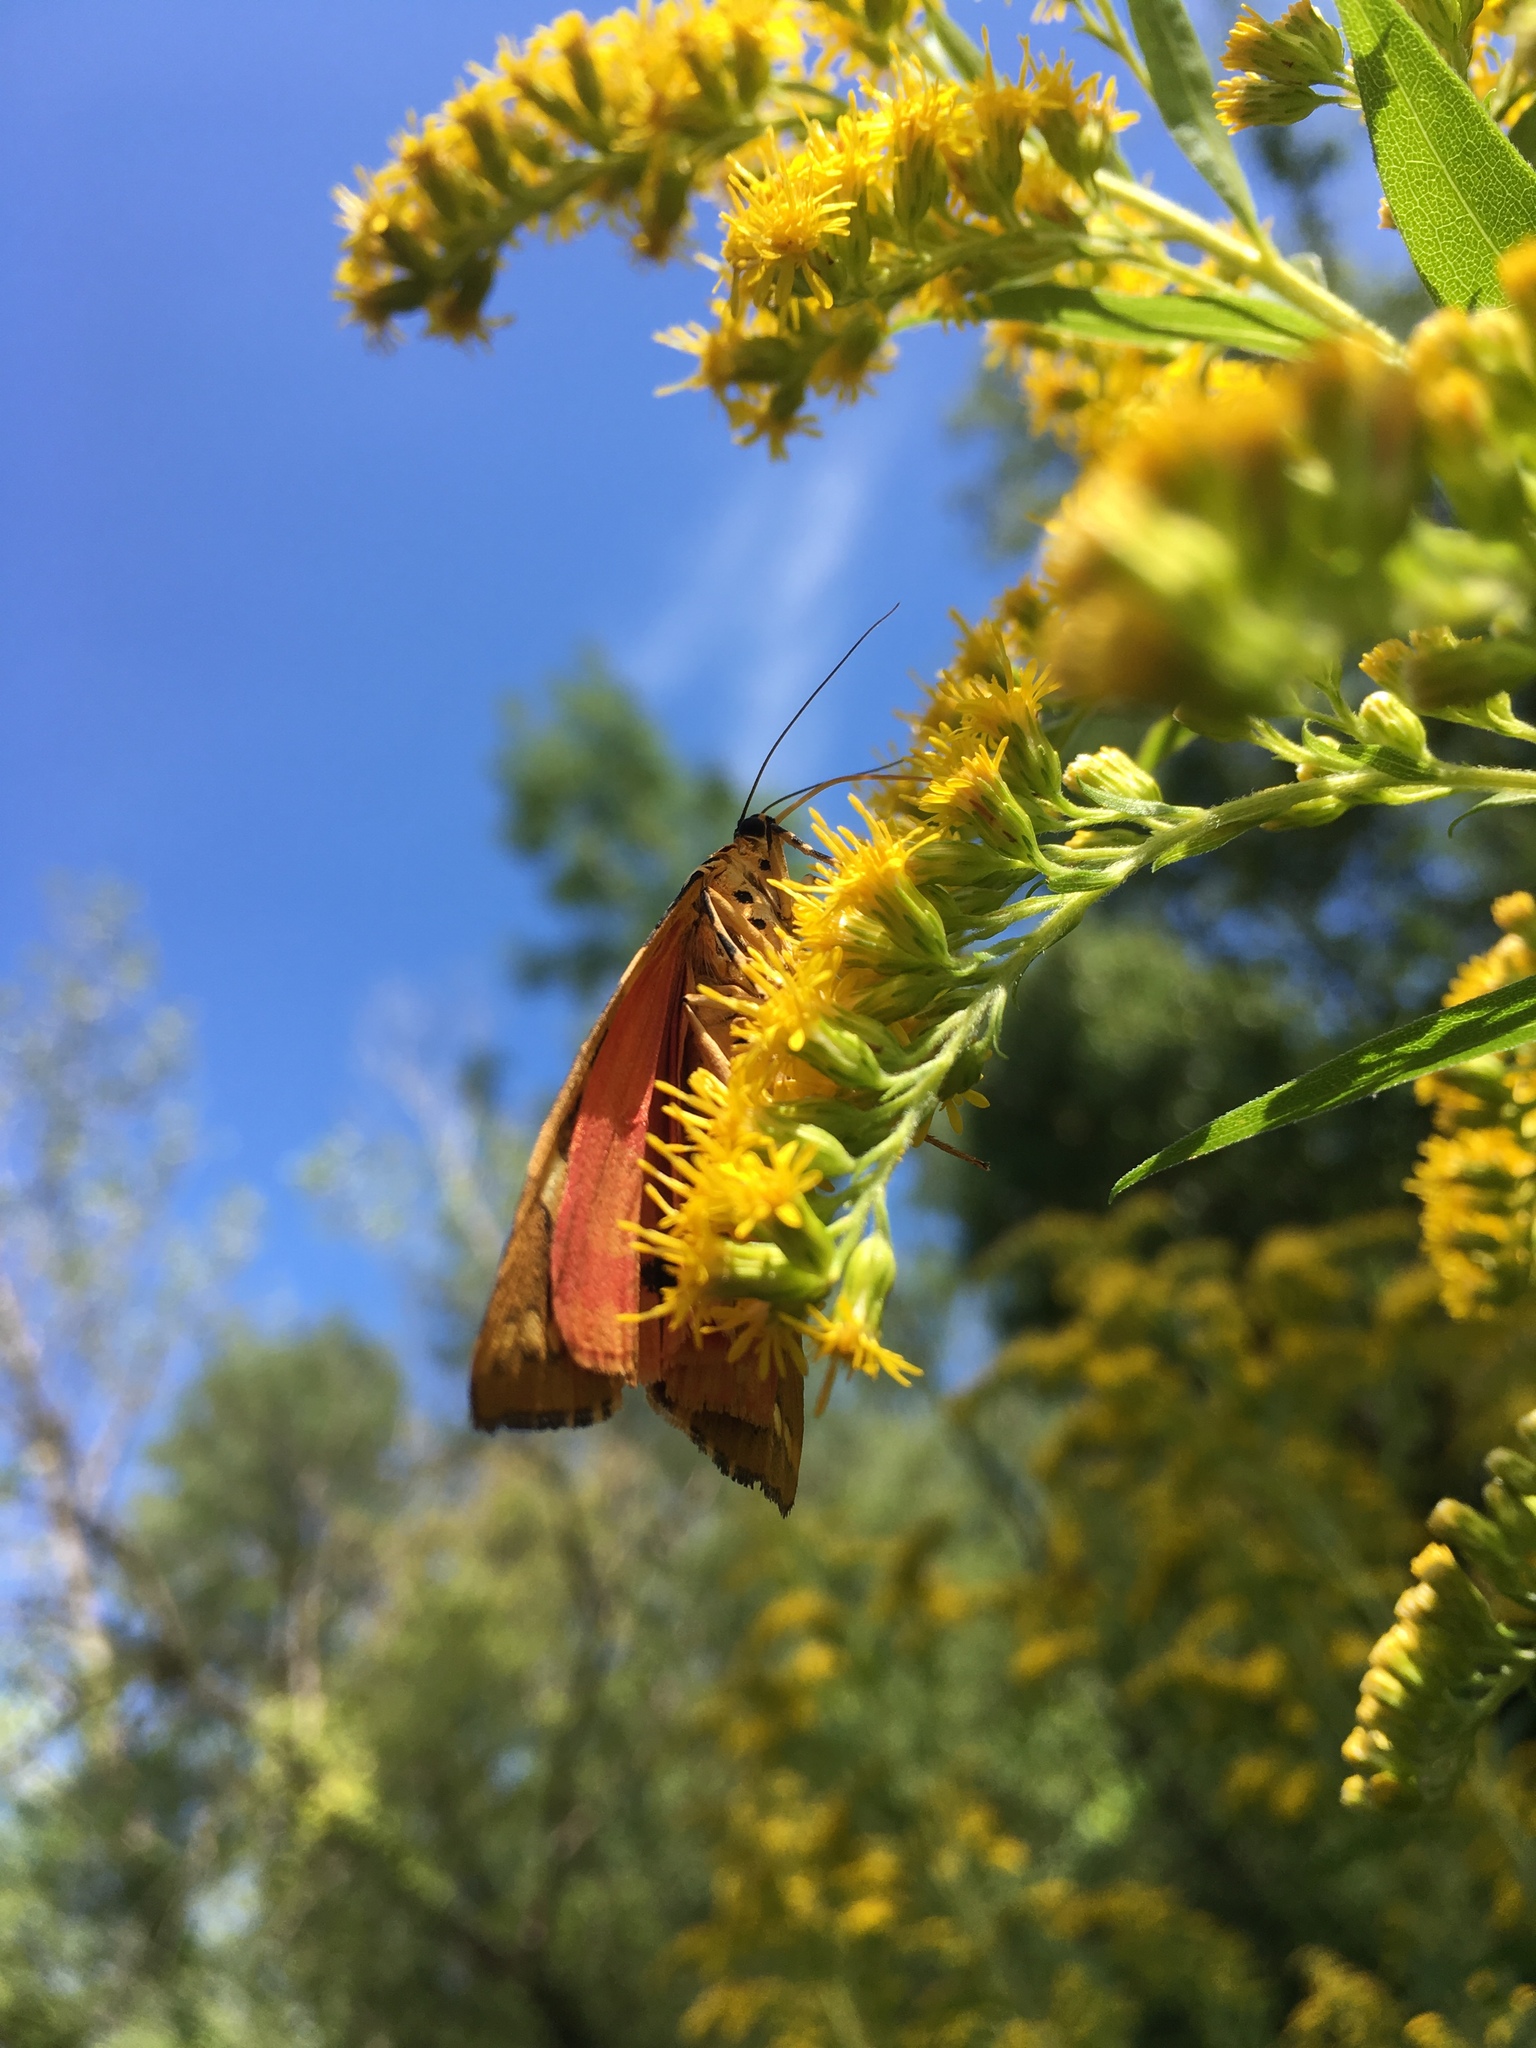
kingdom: Animalia
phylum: Arthropoda
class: Insecta
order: Lepidoptera
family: Erebidae
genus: Euplagia
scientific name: Euplagia quadripunctaria
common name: Jersey tiger
